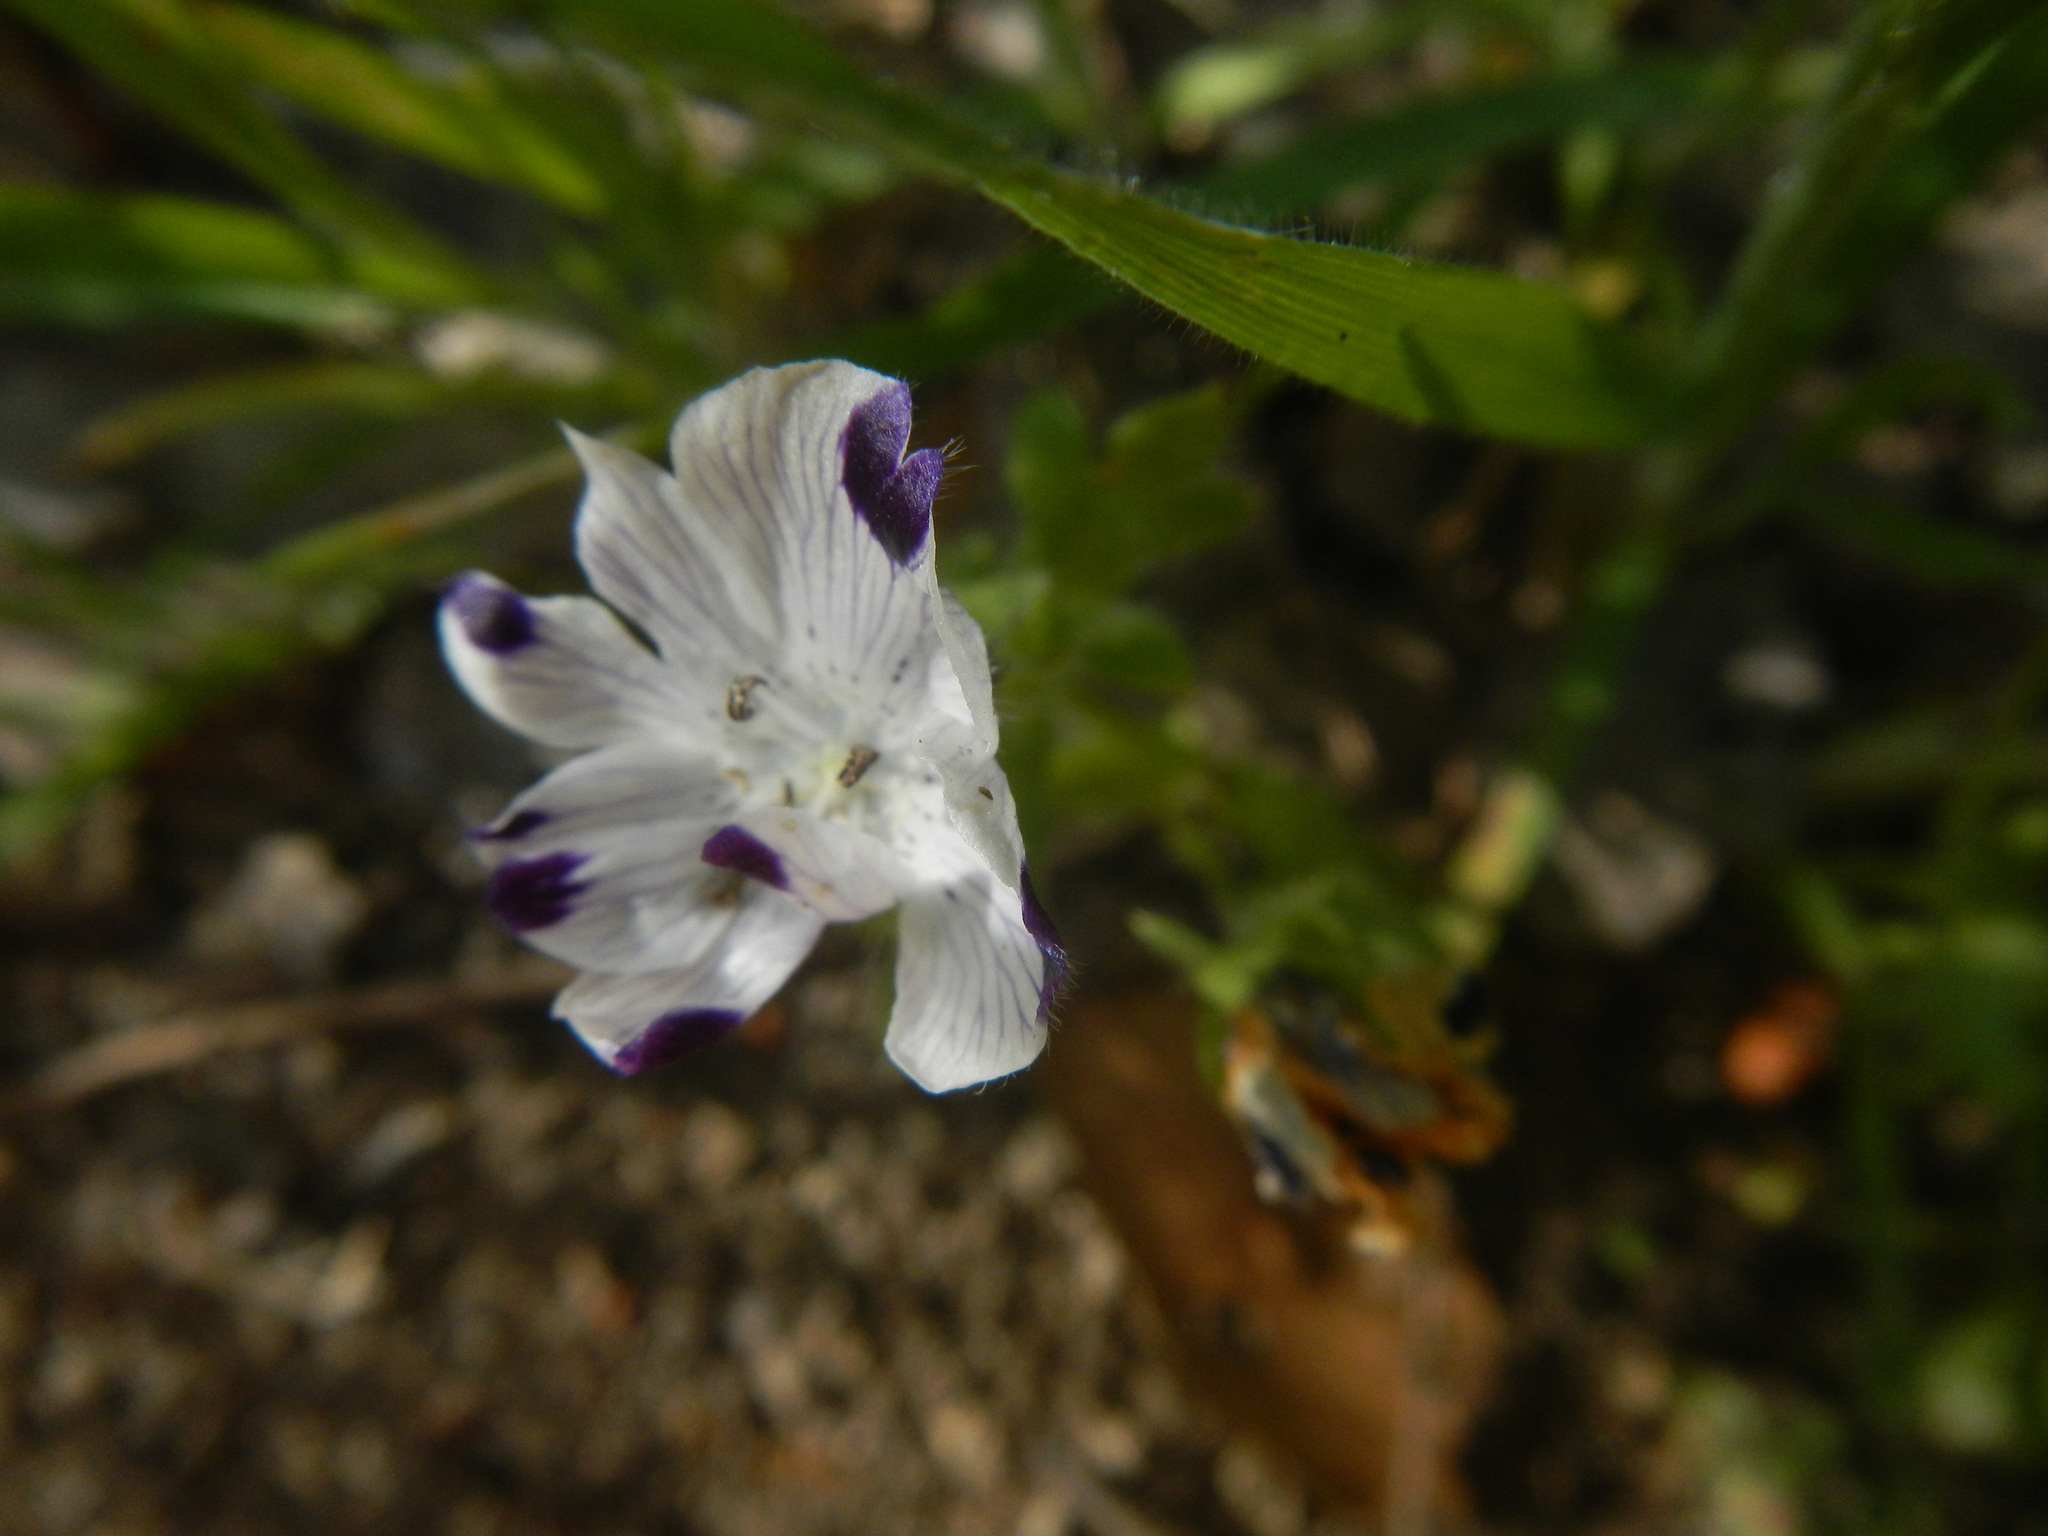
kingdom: Plantae
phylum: Tracheophyta
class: Magnoliopsida
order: Boraginales
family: Hydrophyllaceae
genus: Nemophila
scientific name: Nemophila maculata
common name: Fivespot
